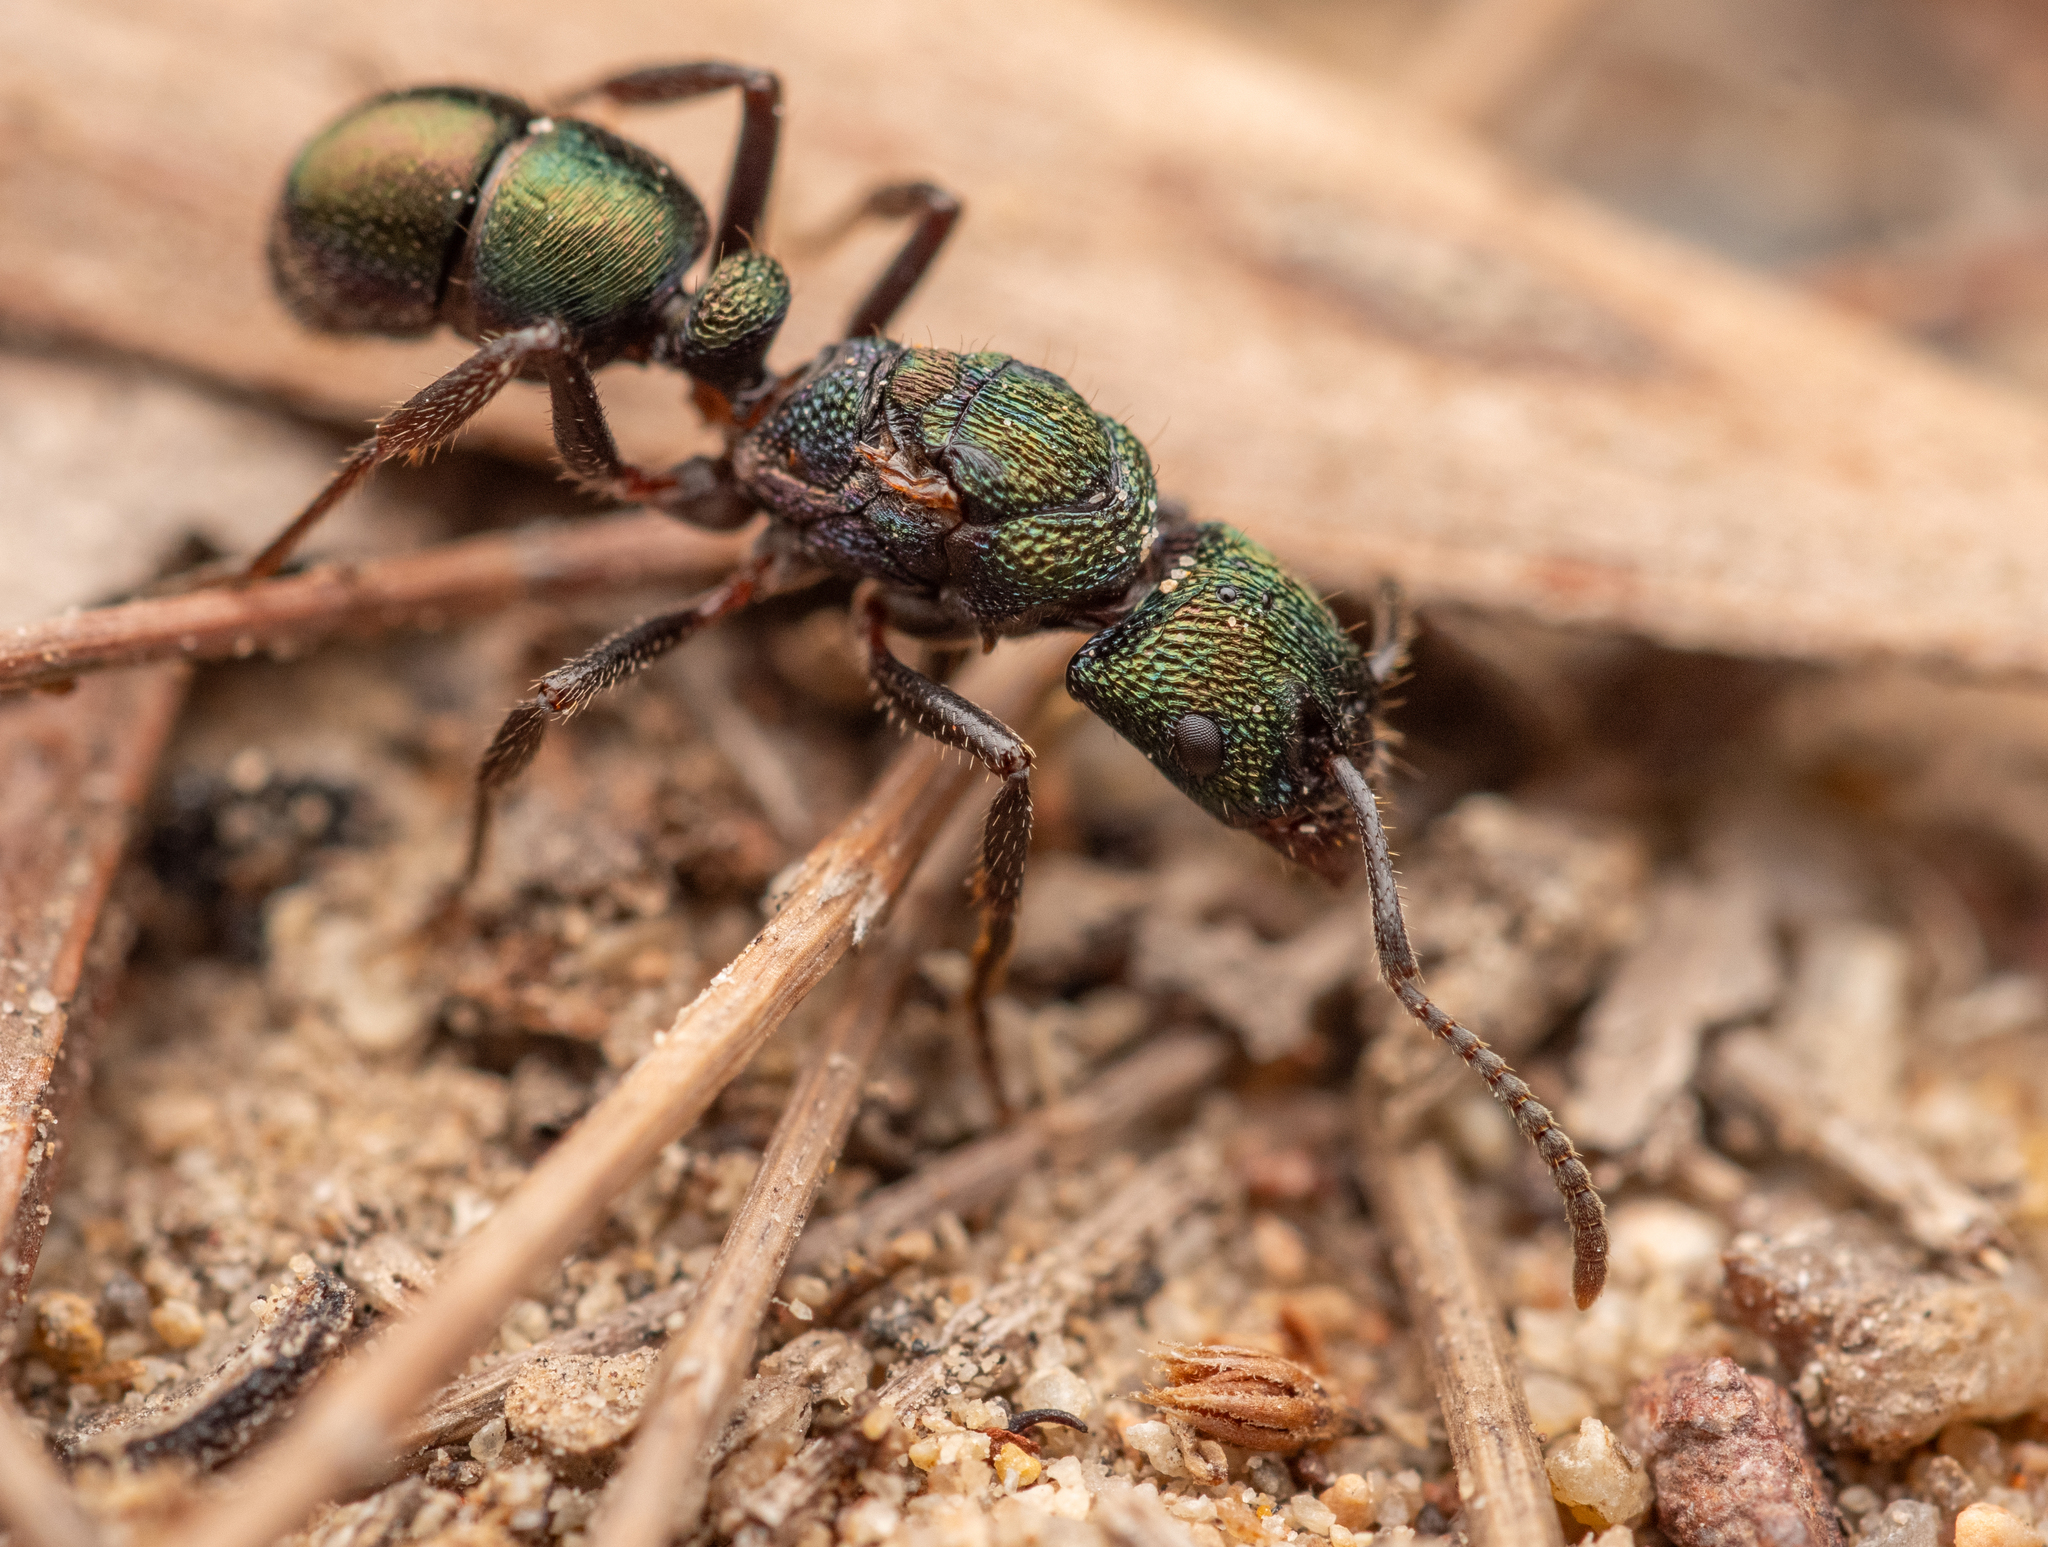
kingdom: Animalia
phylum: Arthropoda
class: Insecta
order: Hymenoptera
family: Formicidae
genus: Rhytidoponera
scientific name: Rhytidoponera metallica
